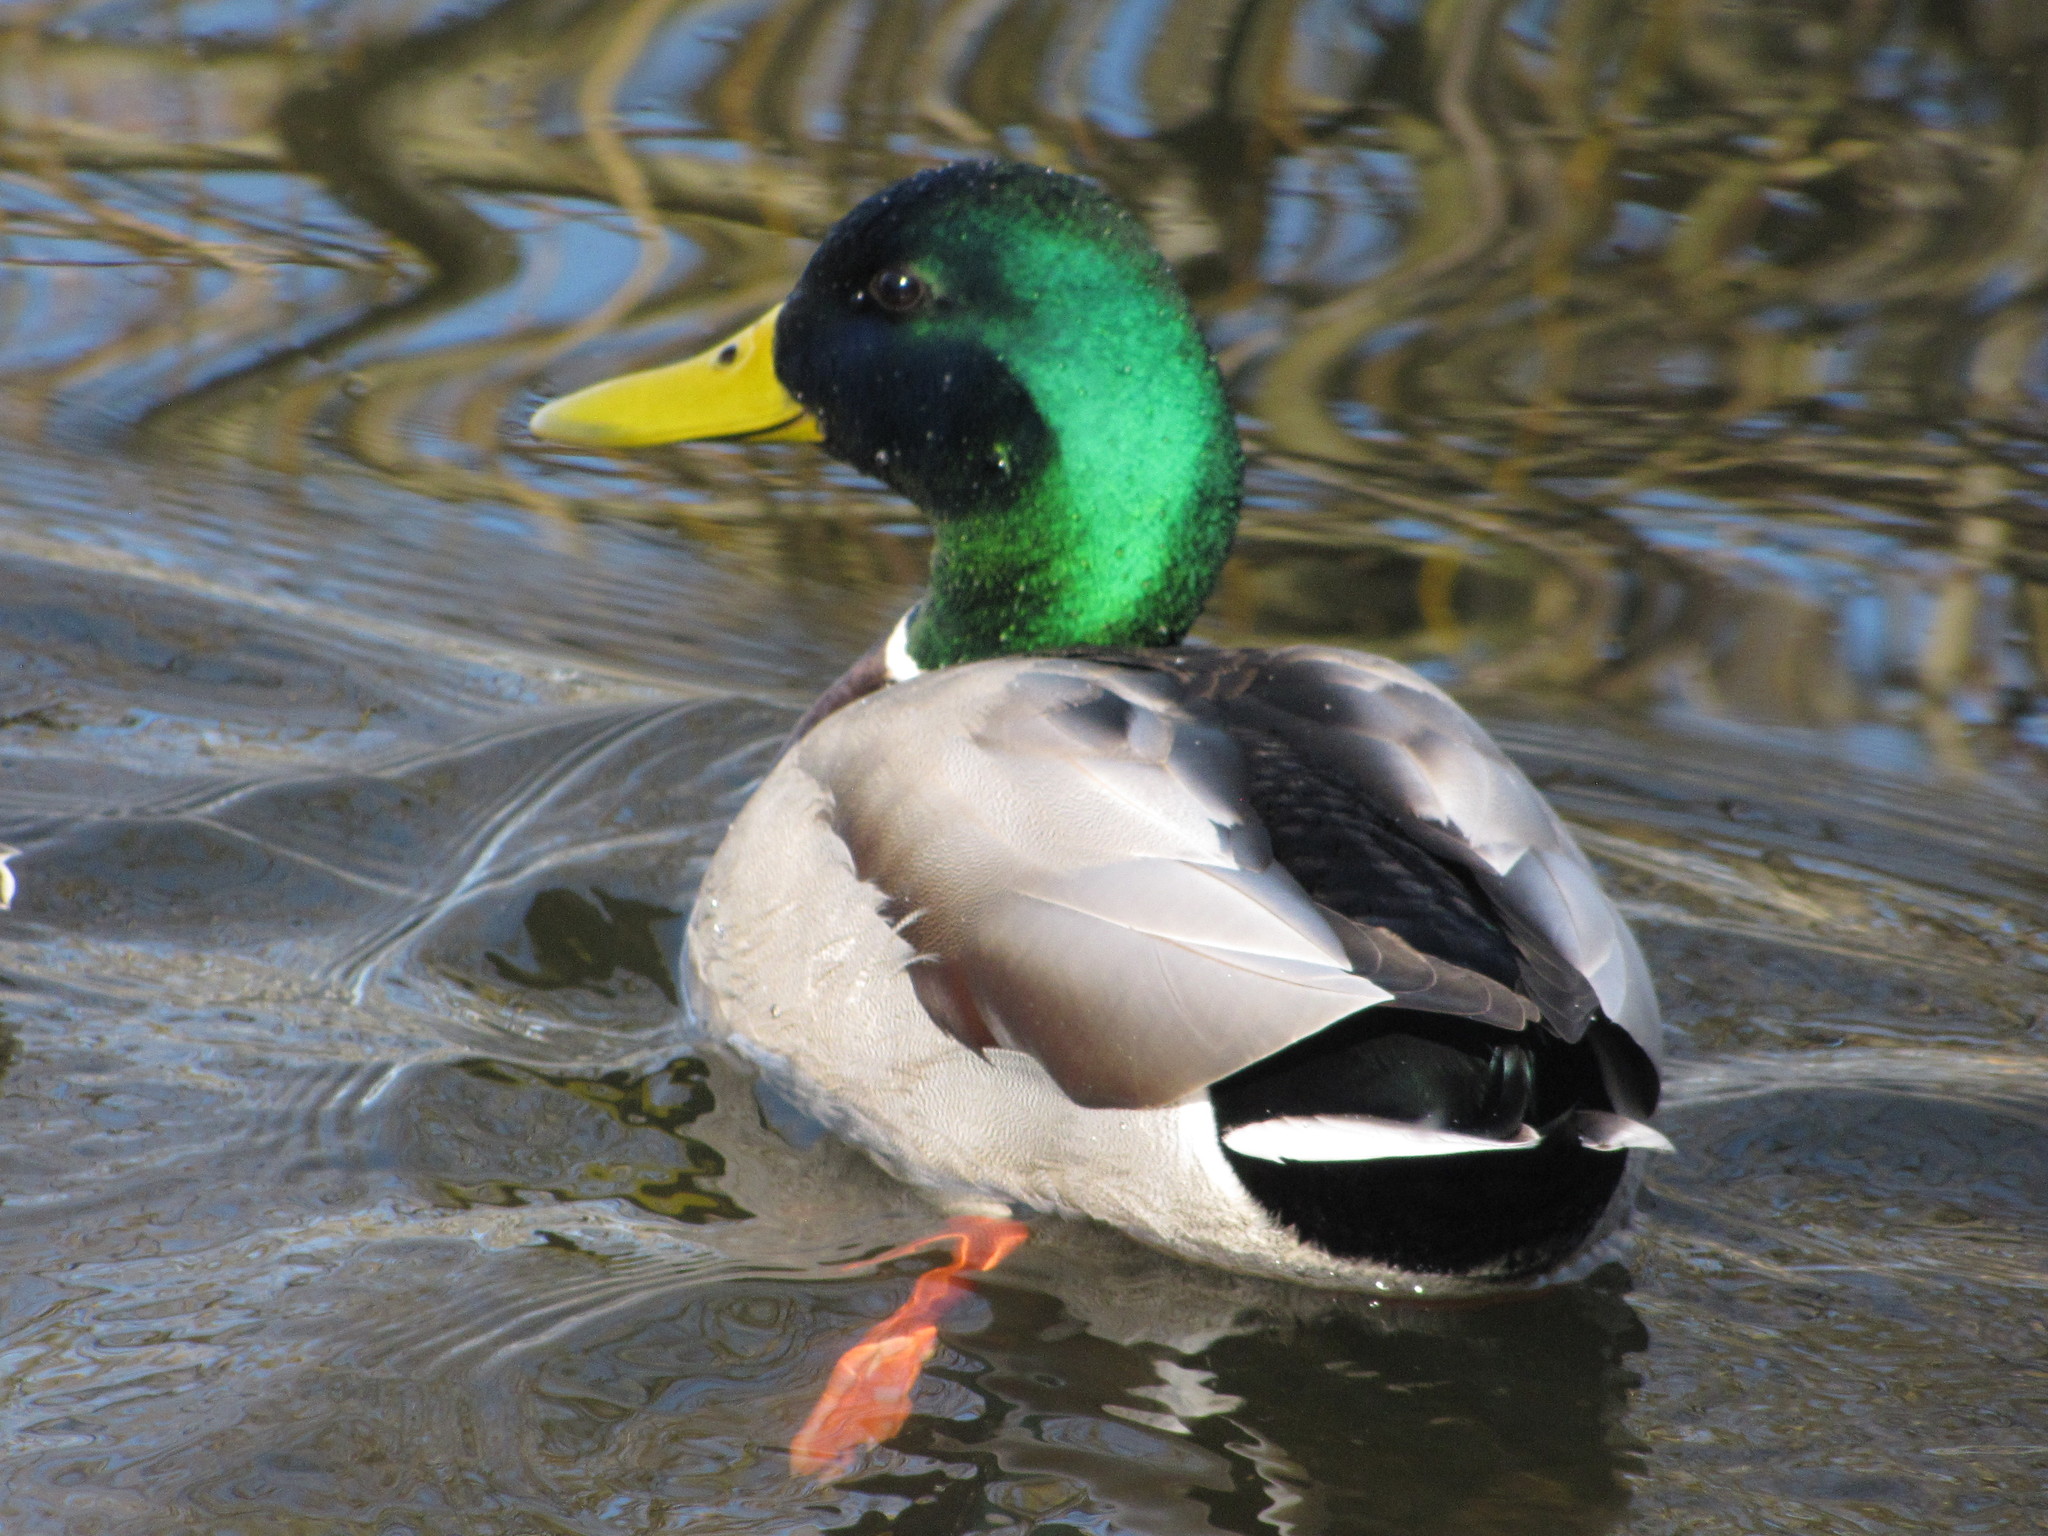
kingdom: Animalia
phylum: Chordata
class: Aves
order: Anseriformes
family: Anatidae
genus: Anas
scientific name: Anas platyrhynchos
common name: Mallard
